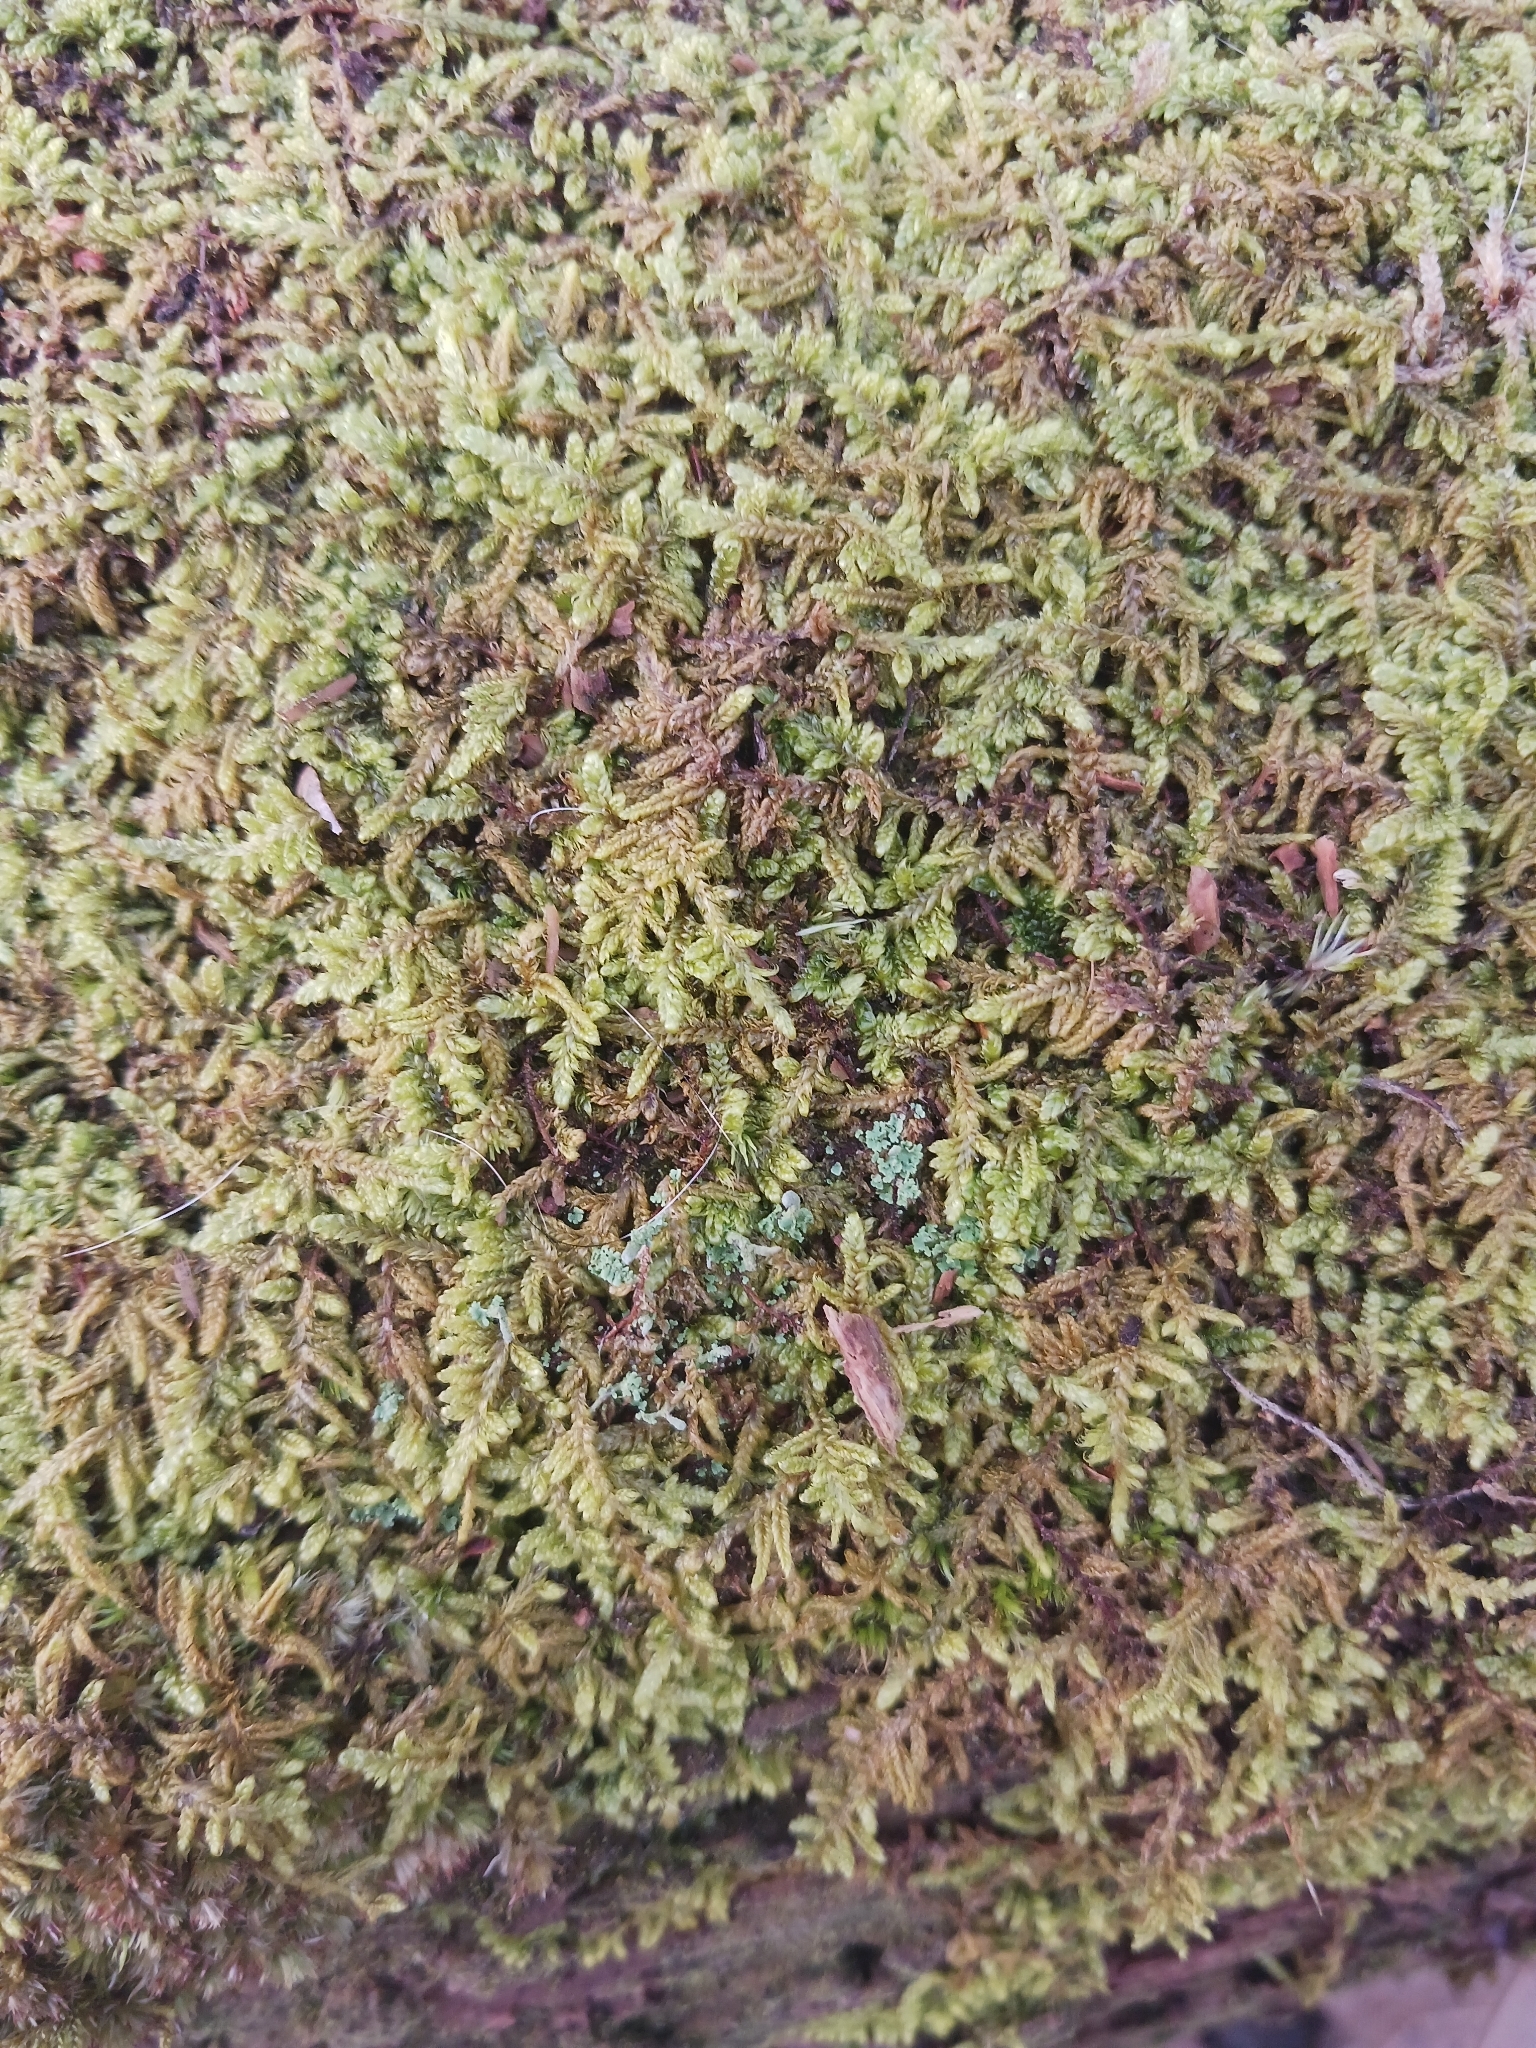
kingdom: Plantae
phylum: Bryophyta
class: Bryopsida
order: Hypnales
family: Callicladiaceae
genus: Callicladium
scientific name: Callicladium imponens
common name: Brocade moss
